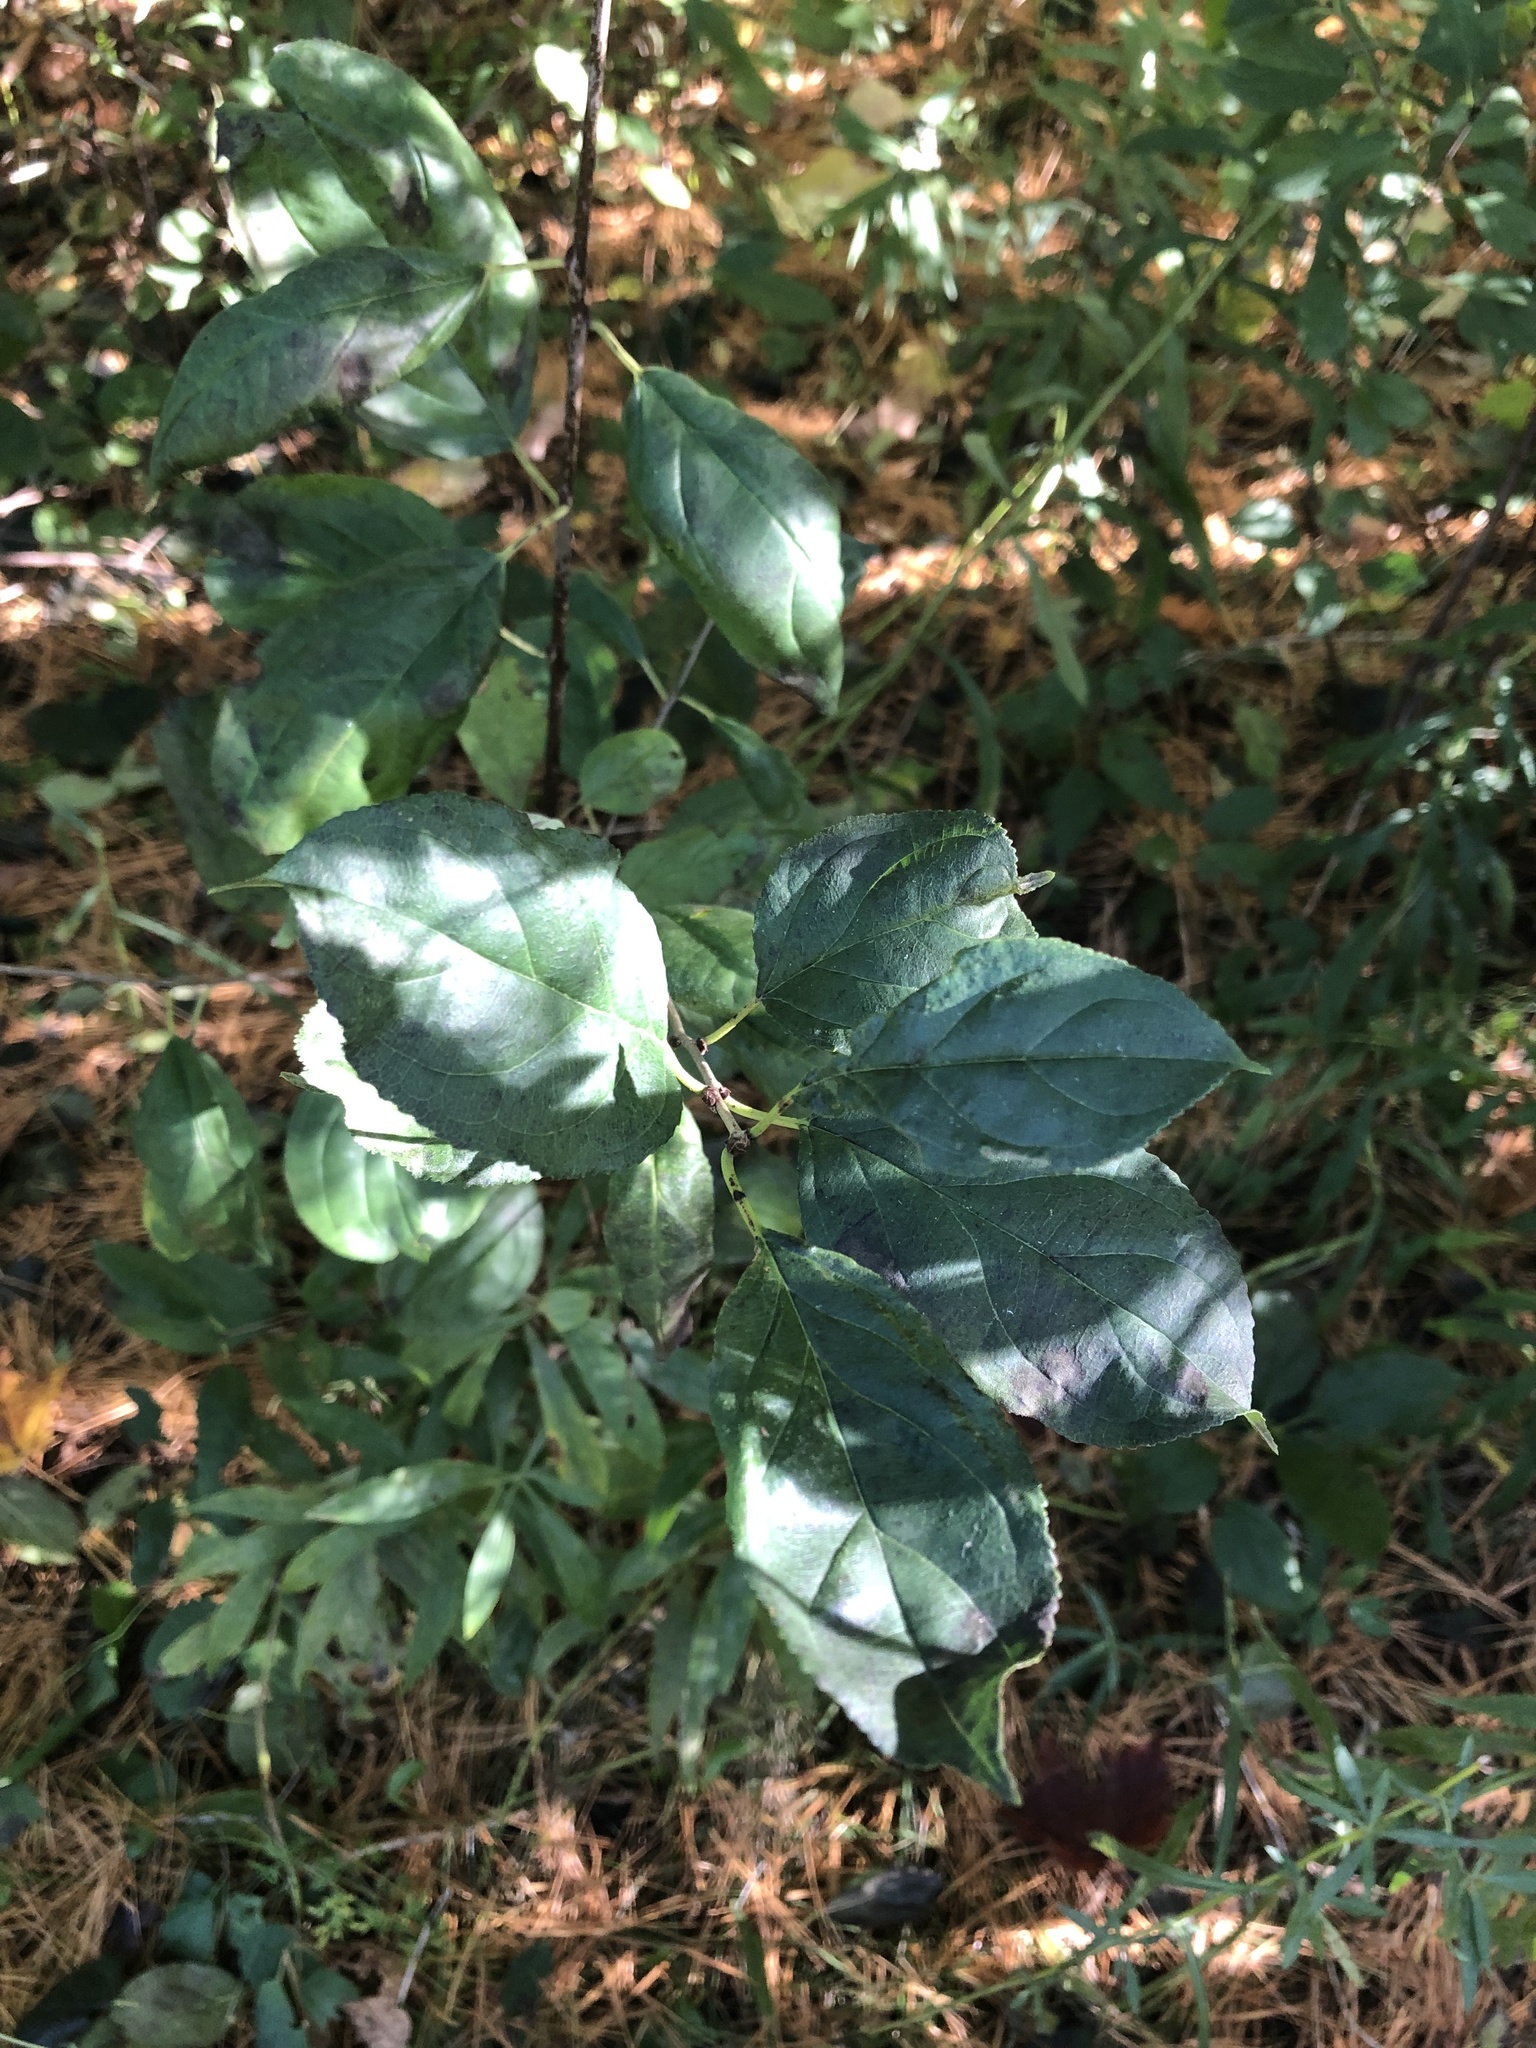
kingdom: Plantae
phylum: Tracheophyta
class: Magnoliopsida
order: Rosales
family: Rhamnaceae
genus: Rhamnus
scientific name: Rhamnus cathartica
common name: Common buckthorn
